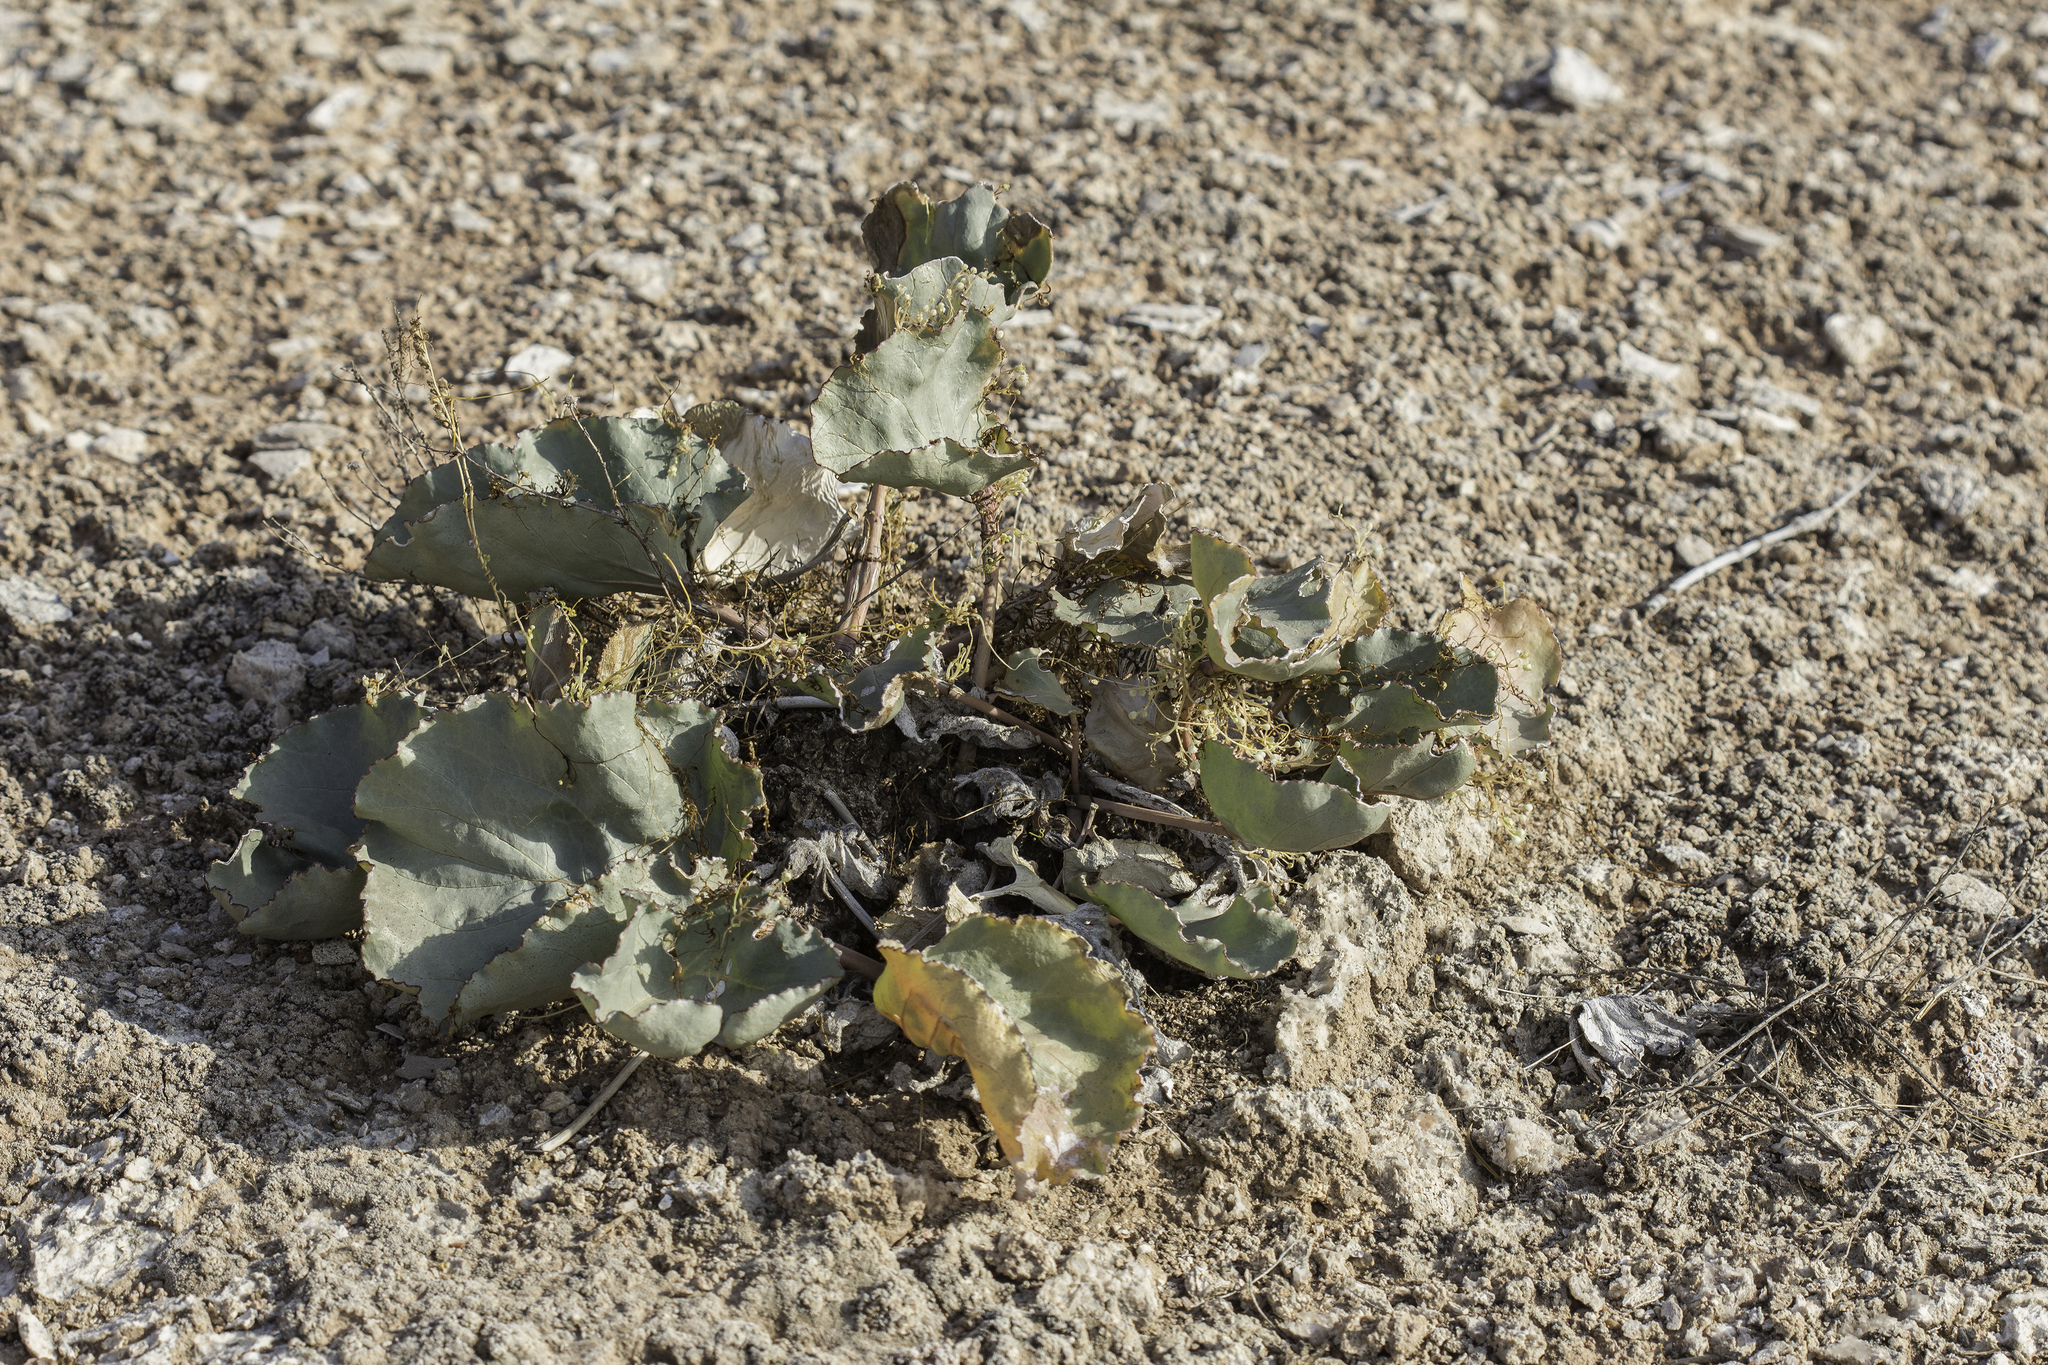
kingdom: Plantae
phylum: Tracheophyta
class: Magnoliopsida
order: Caryophyllales
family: Nyctaginaceae
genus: Anulocaulis
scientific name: Anulocaulis leiosolenus
